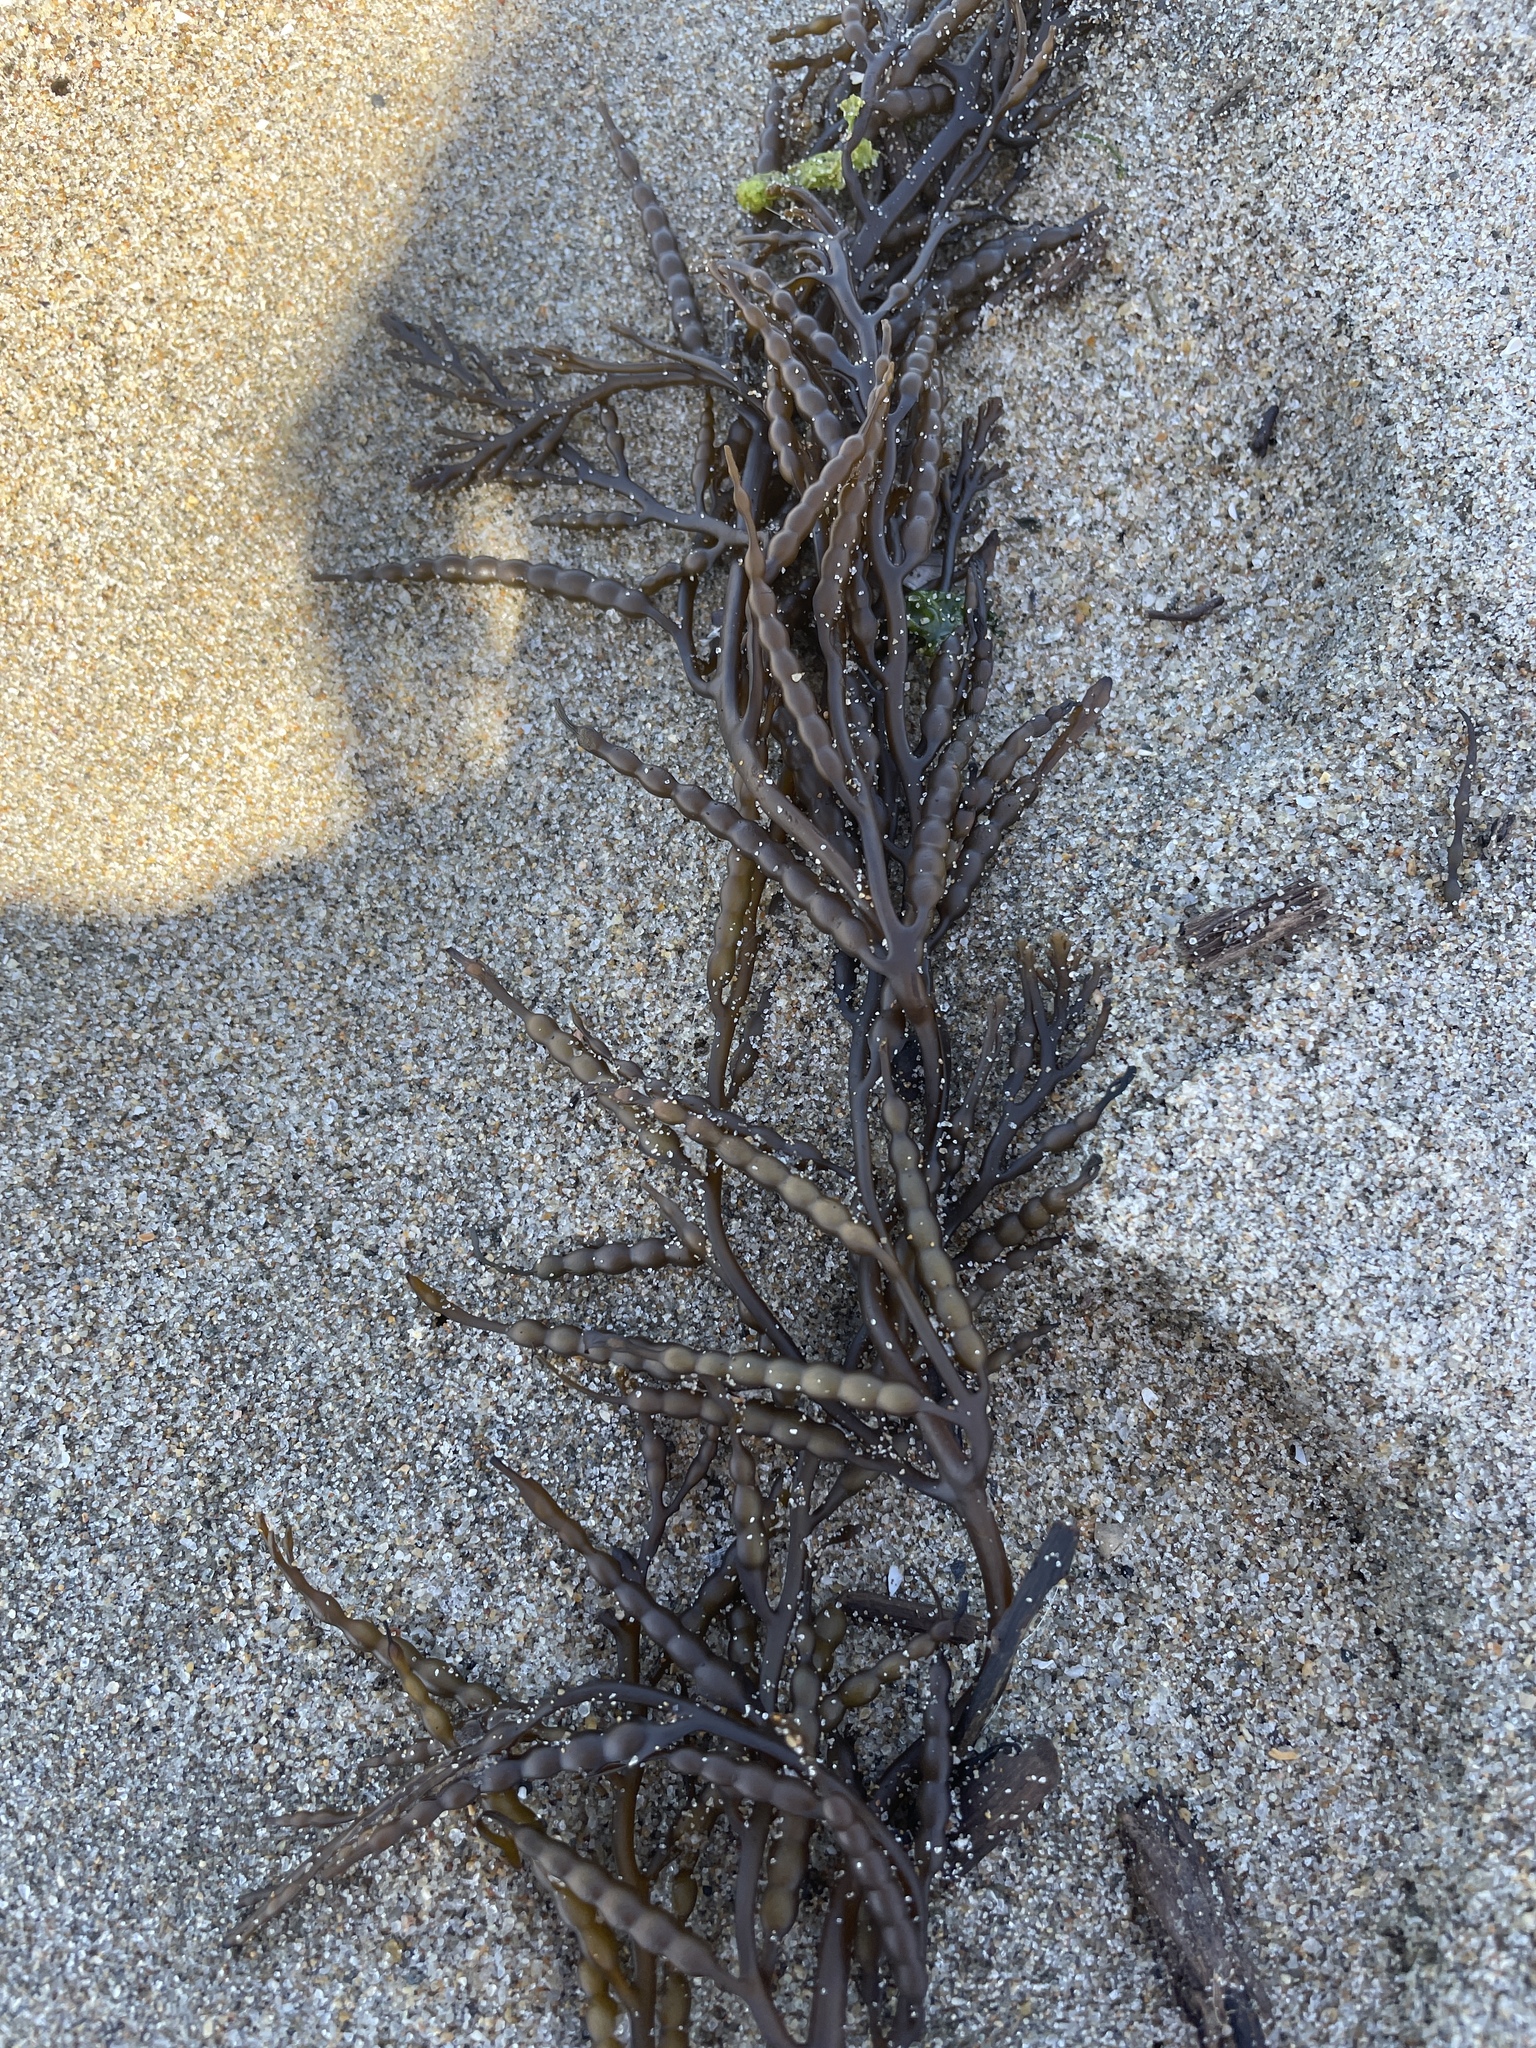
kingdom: Chromista
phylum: Ochrophyta
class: Phaeophyceae
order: Fucales
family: Sargassaceae
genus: Stephanocystis
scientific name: Stephanocystis
